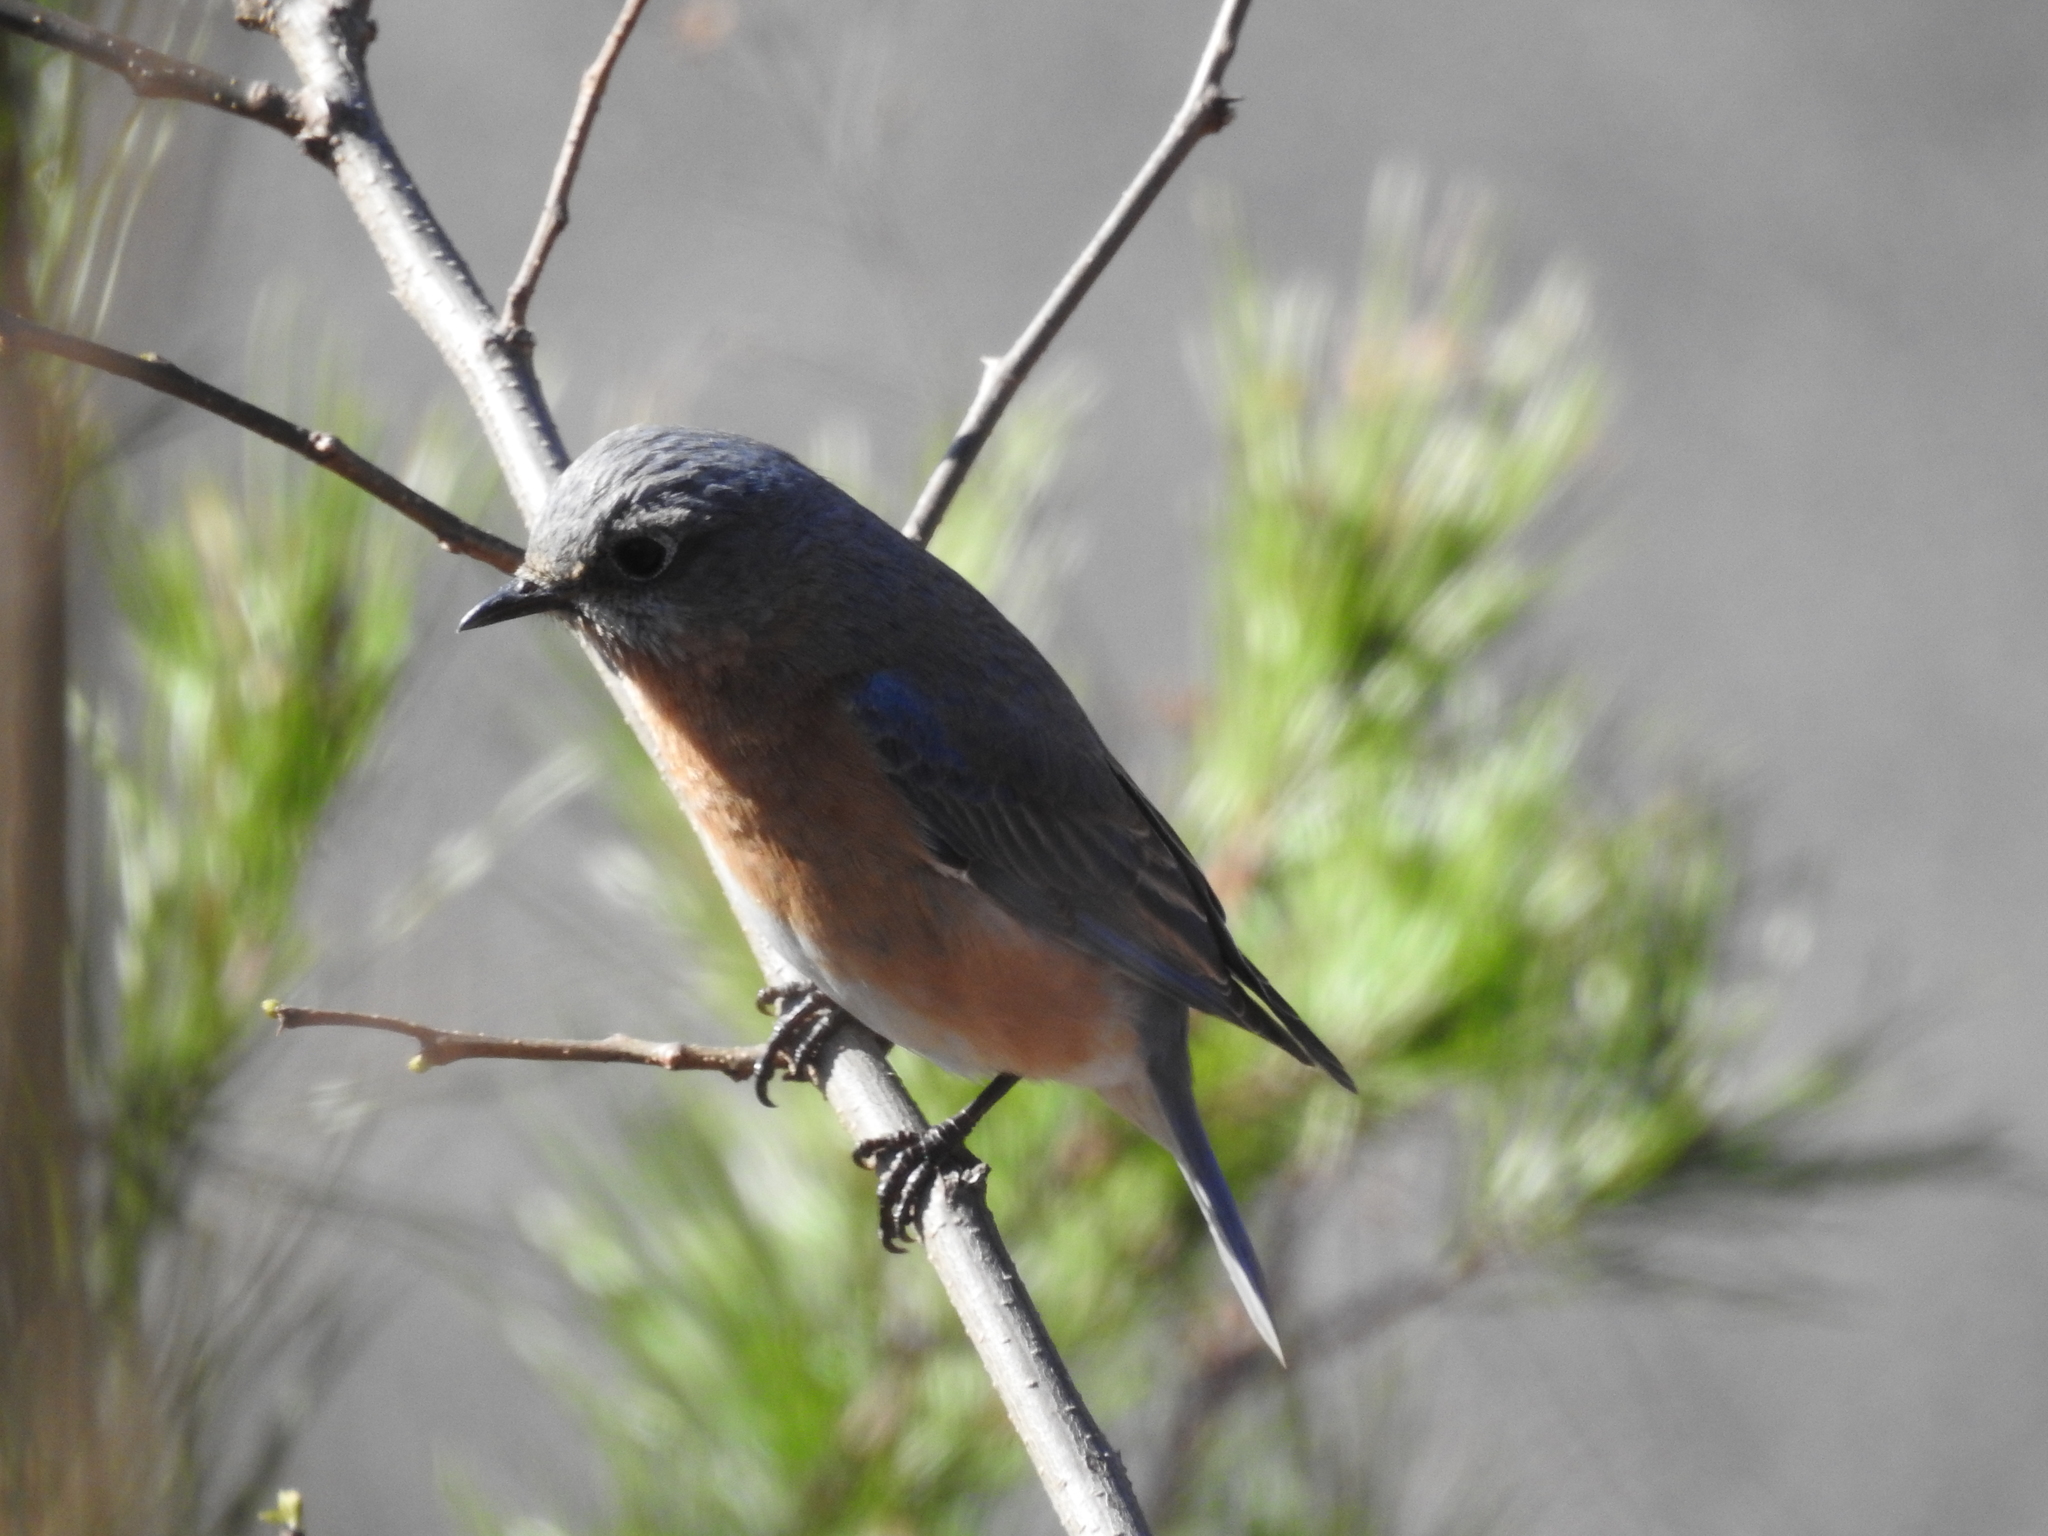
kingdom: Animalia
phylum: Chordata
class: Aves
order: Passeriformes
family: Turdidae
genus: Sialia
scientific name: Sialia sialis
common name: Eastern bluebird
